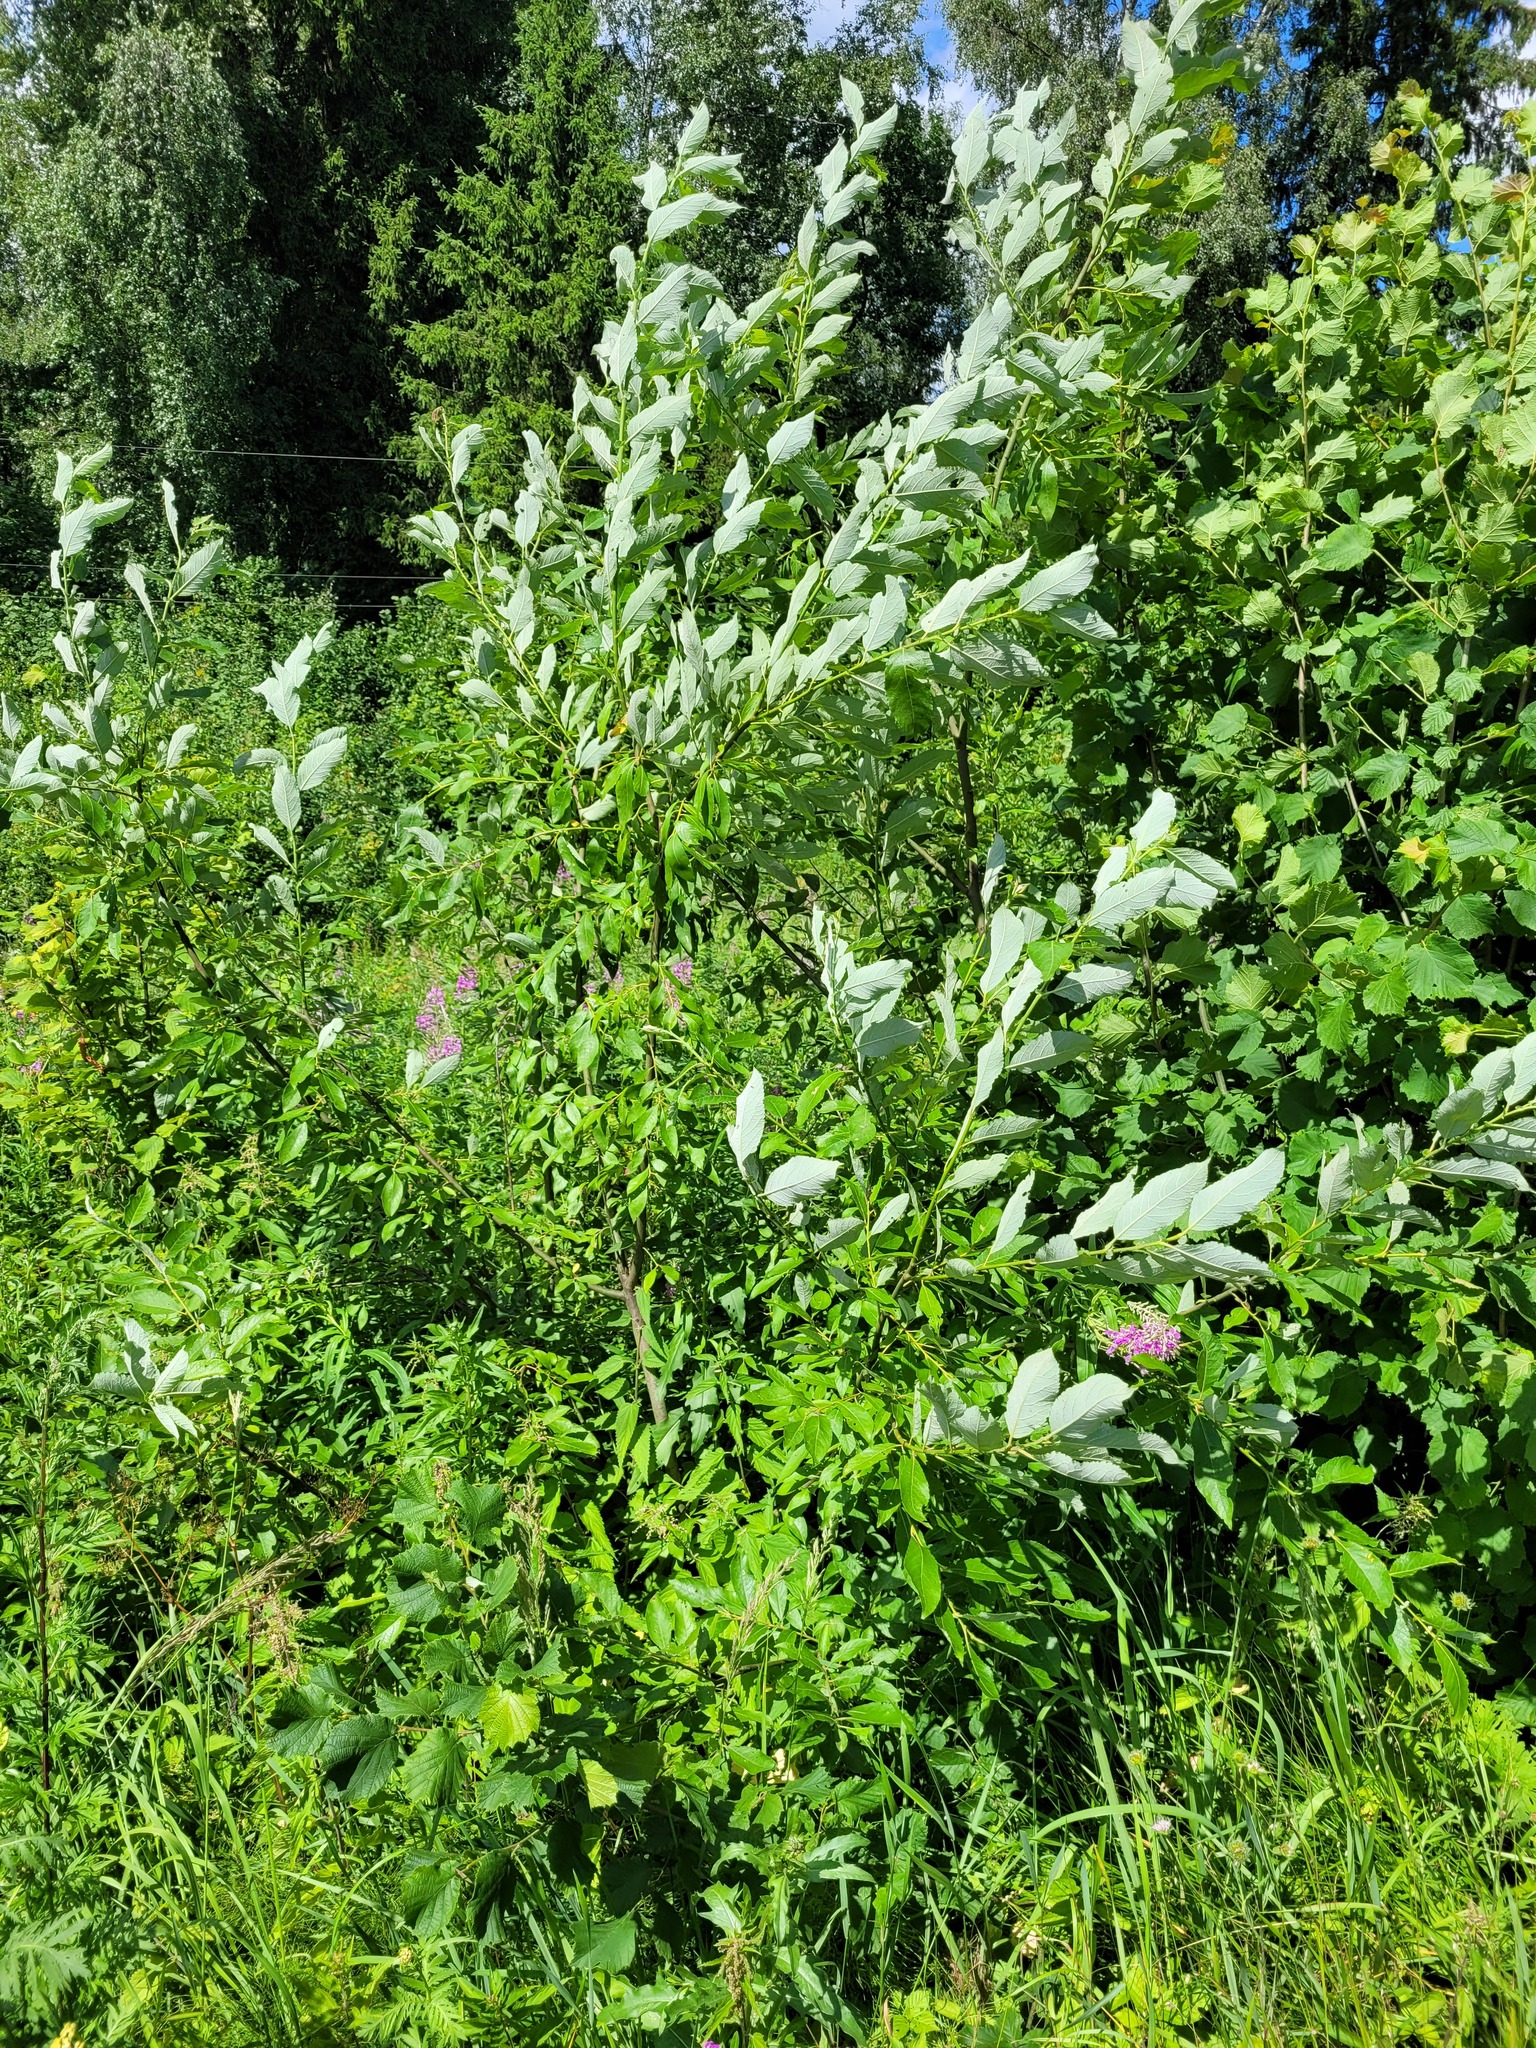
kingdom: Plantae
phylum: Tracheophyta
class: Magnoliopsida
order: Malpighiales
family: Salicaceae
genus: Salix
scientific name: Salix caprea
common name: Goat willow
